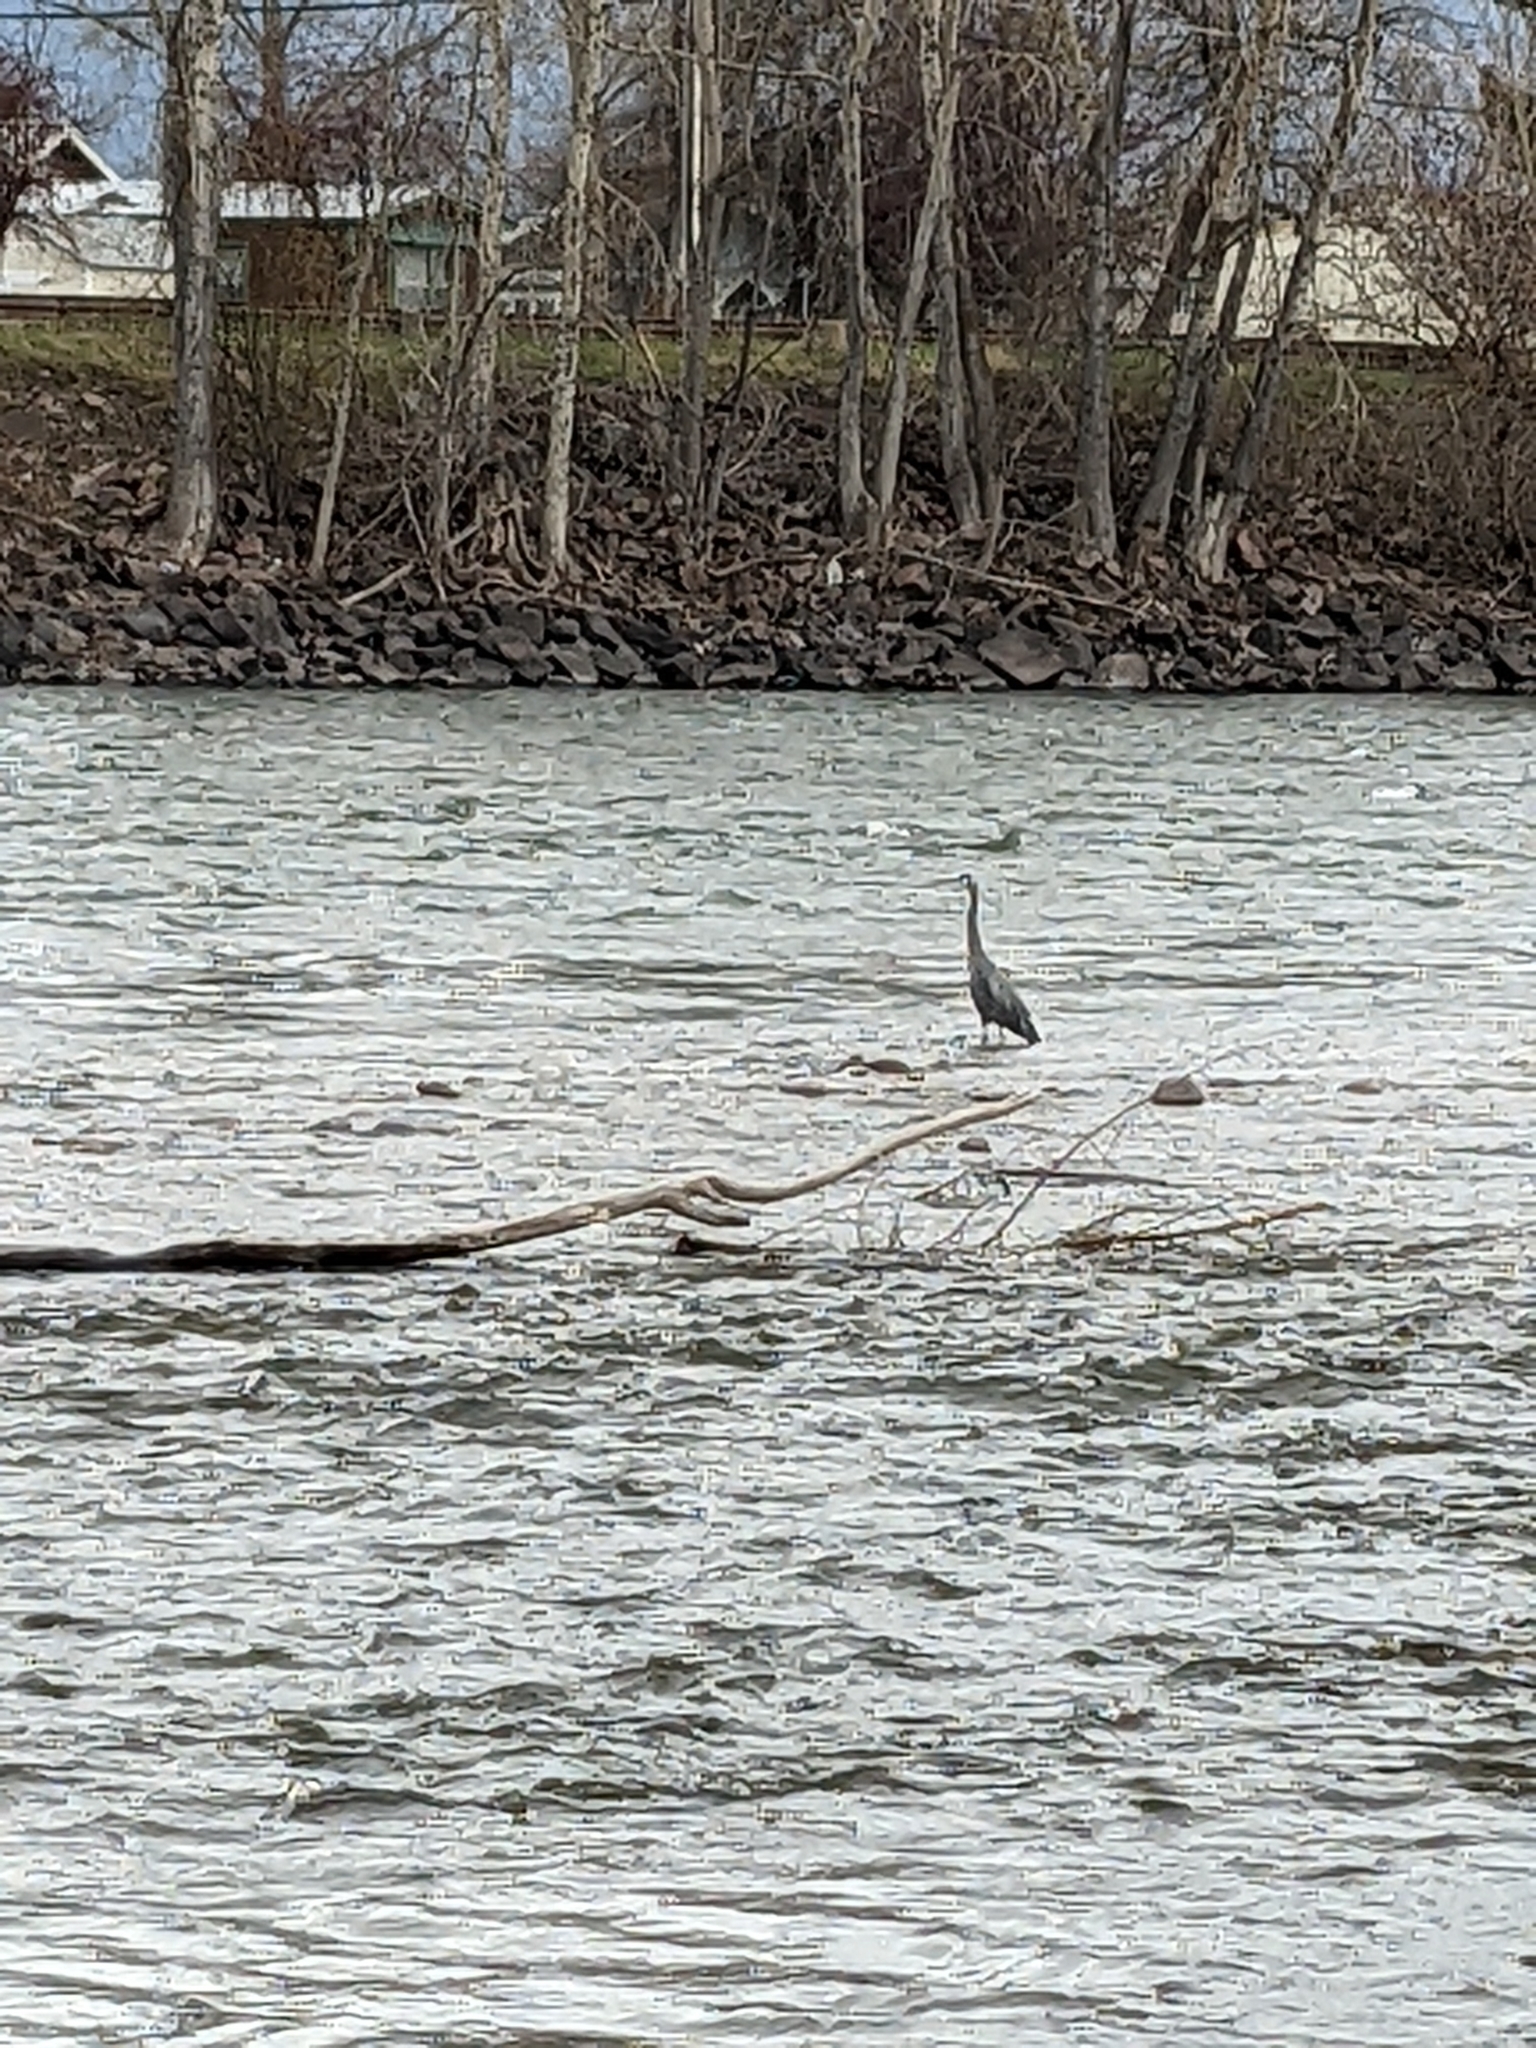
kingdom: Animalia
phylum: Chordata
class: Aves
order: Pelecaniformes
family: Ardeidae
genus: Ardea
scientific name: Ardea herodias
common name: Great blue heron
